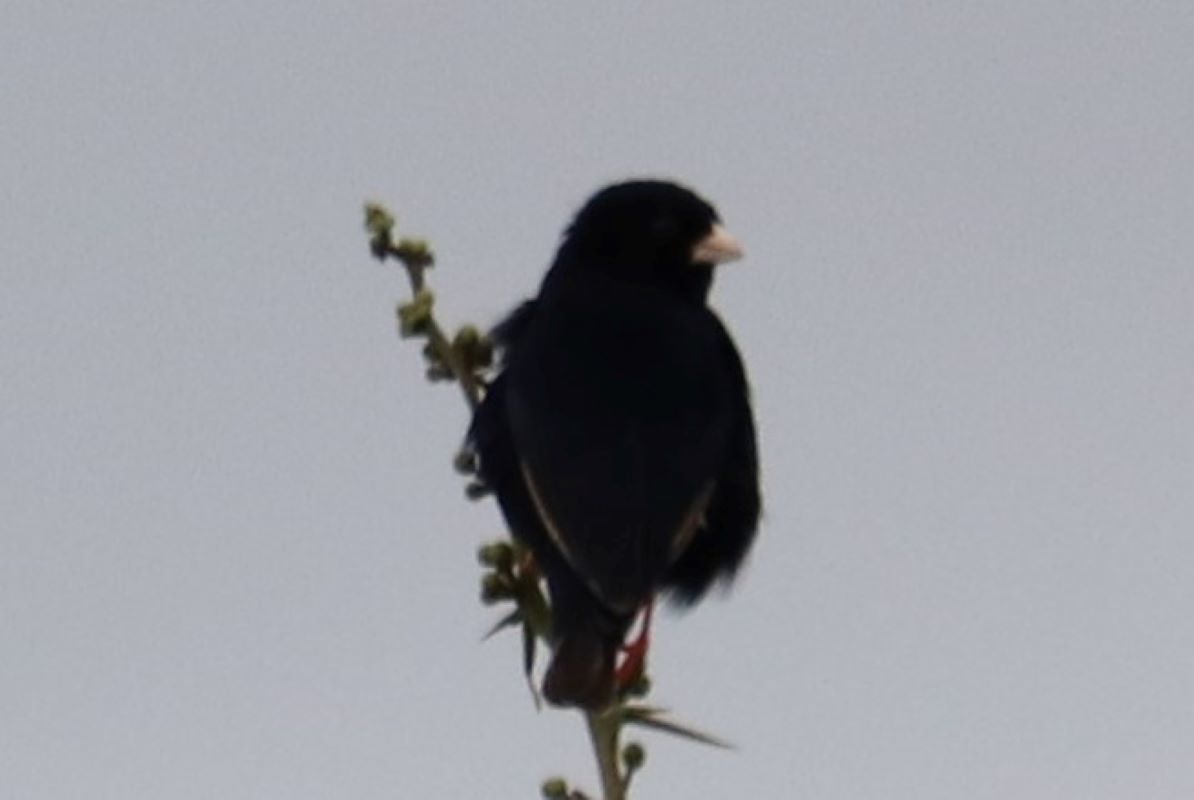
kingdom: Animalia
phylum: Chordata
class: Aves
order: Passeriformes
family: Viduidae
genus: Vidua
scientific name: Vidua funerea
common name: Dusky indigobird
